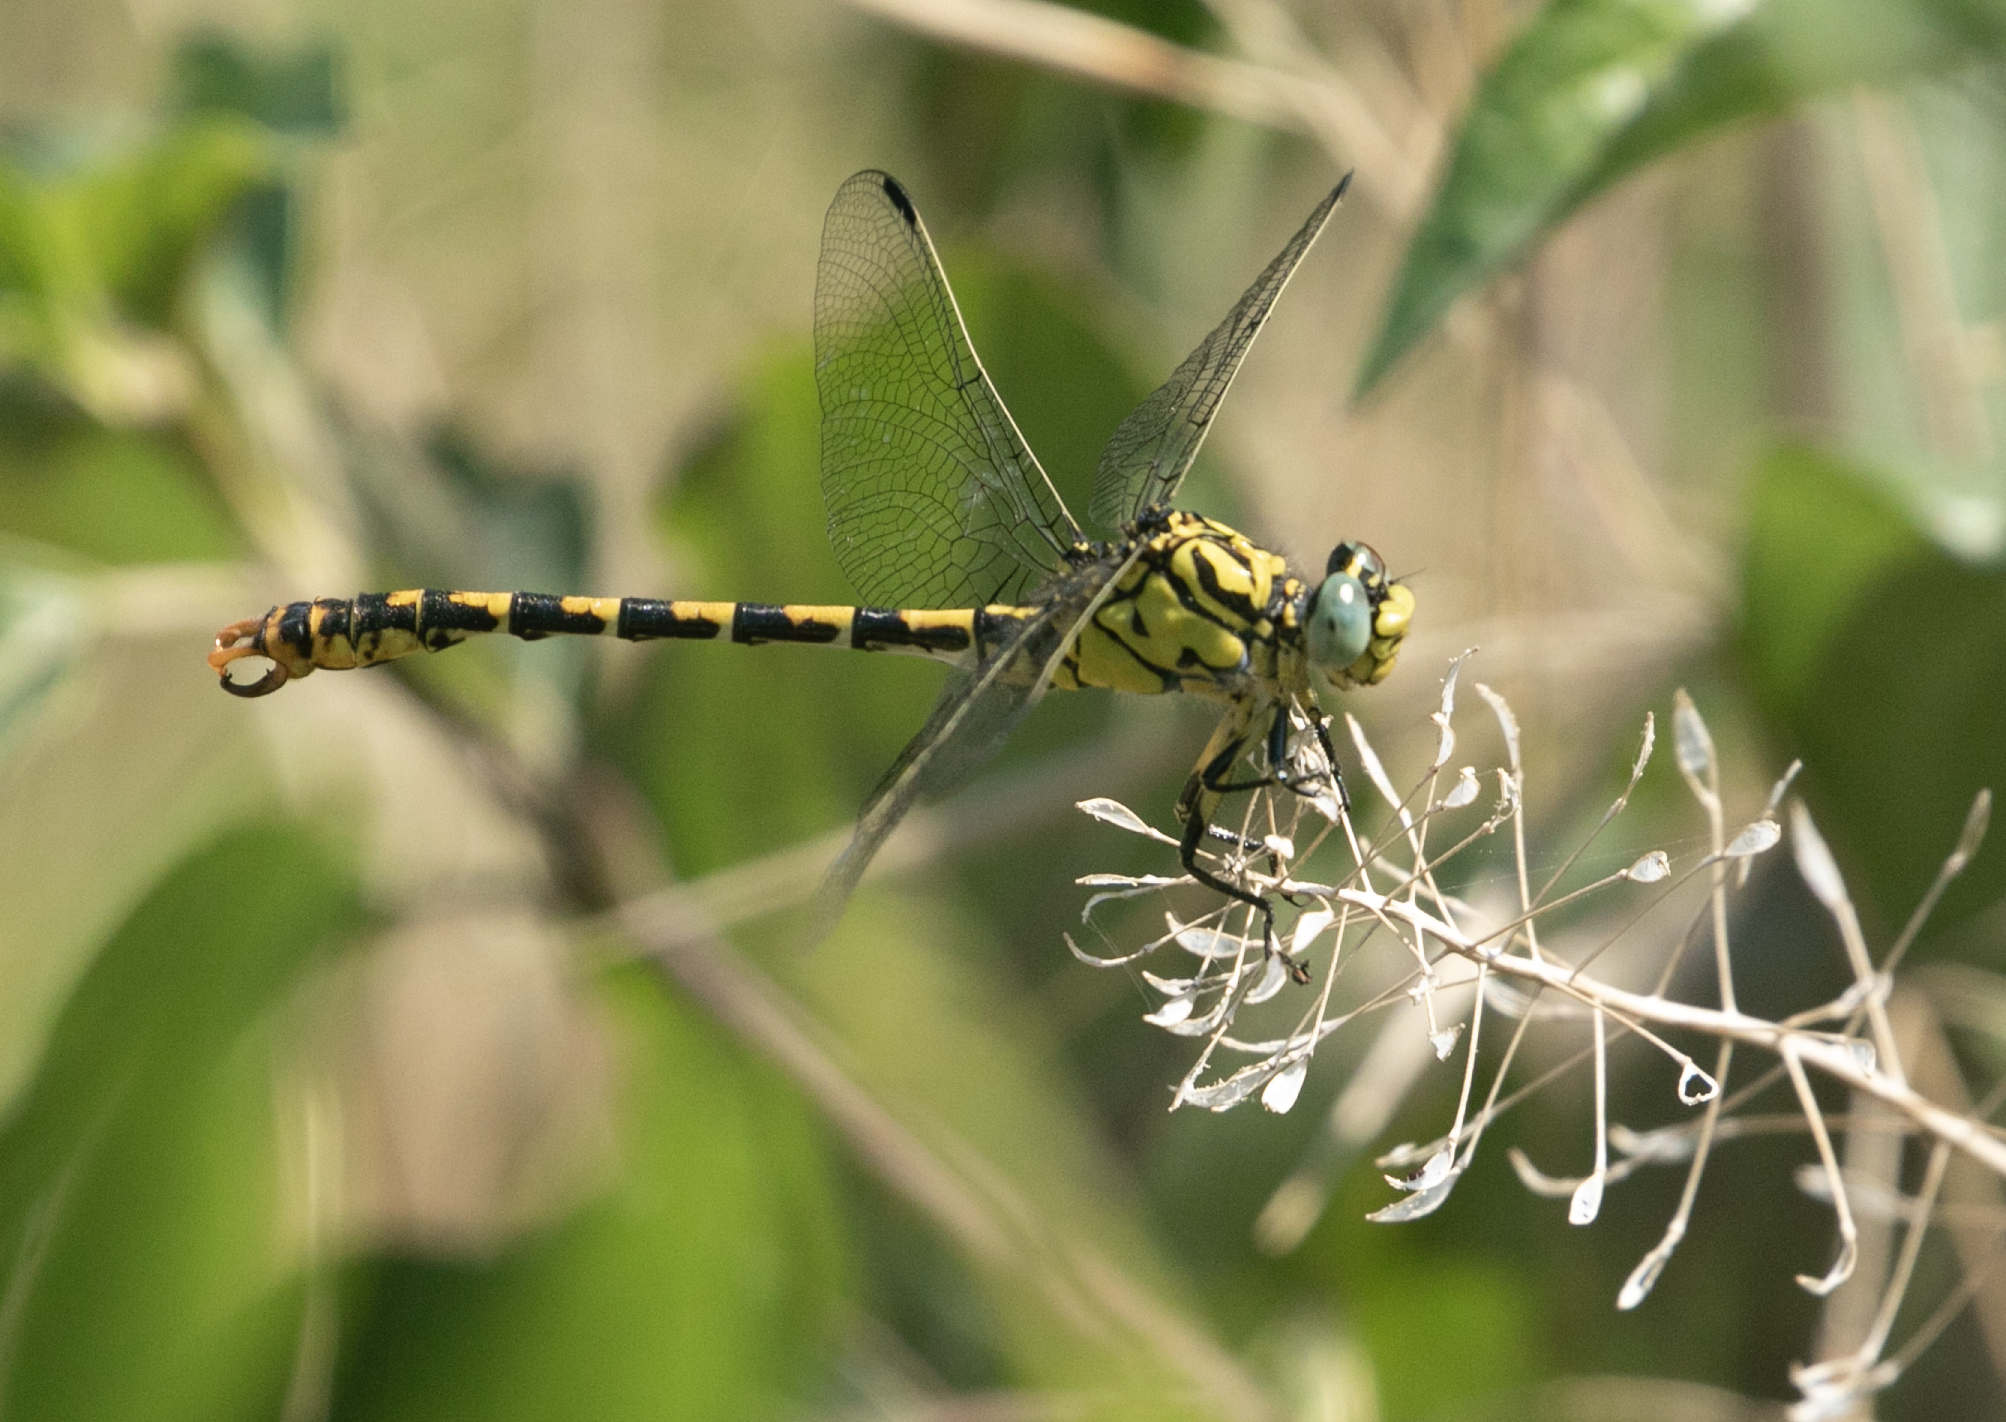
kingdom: Animalia
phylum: Arthropoda
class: Insecta
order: Odonata
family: Gomphidae
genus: Onychogomphus
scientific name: Onychogomphus forcipatus
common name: Small pincertail
